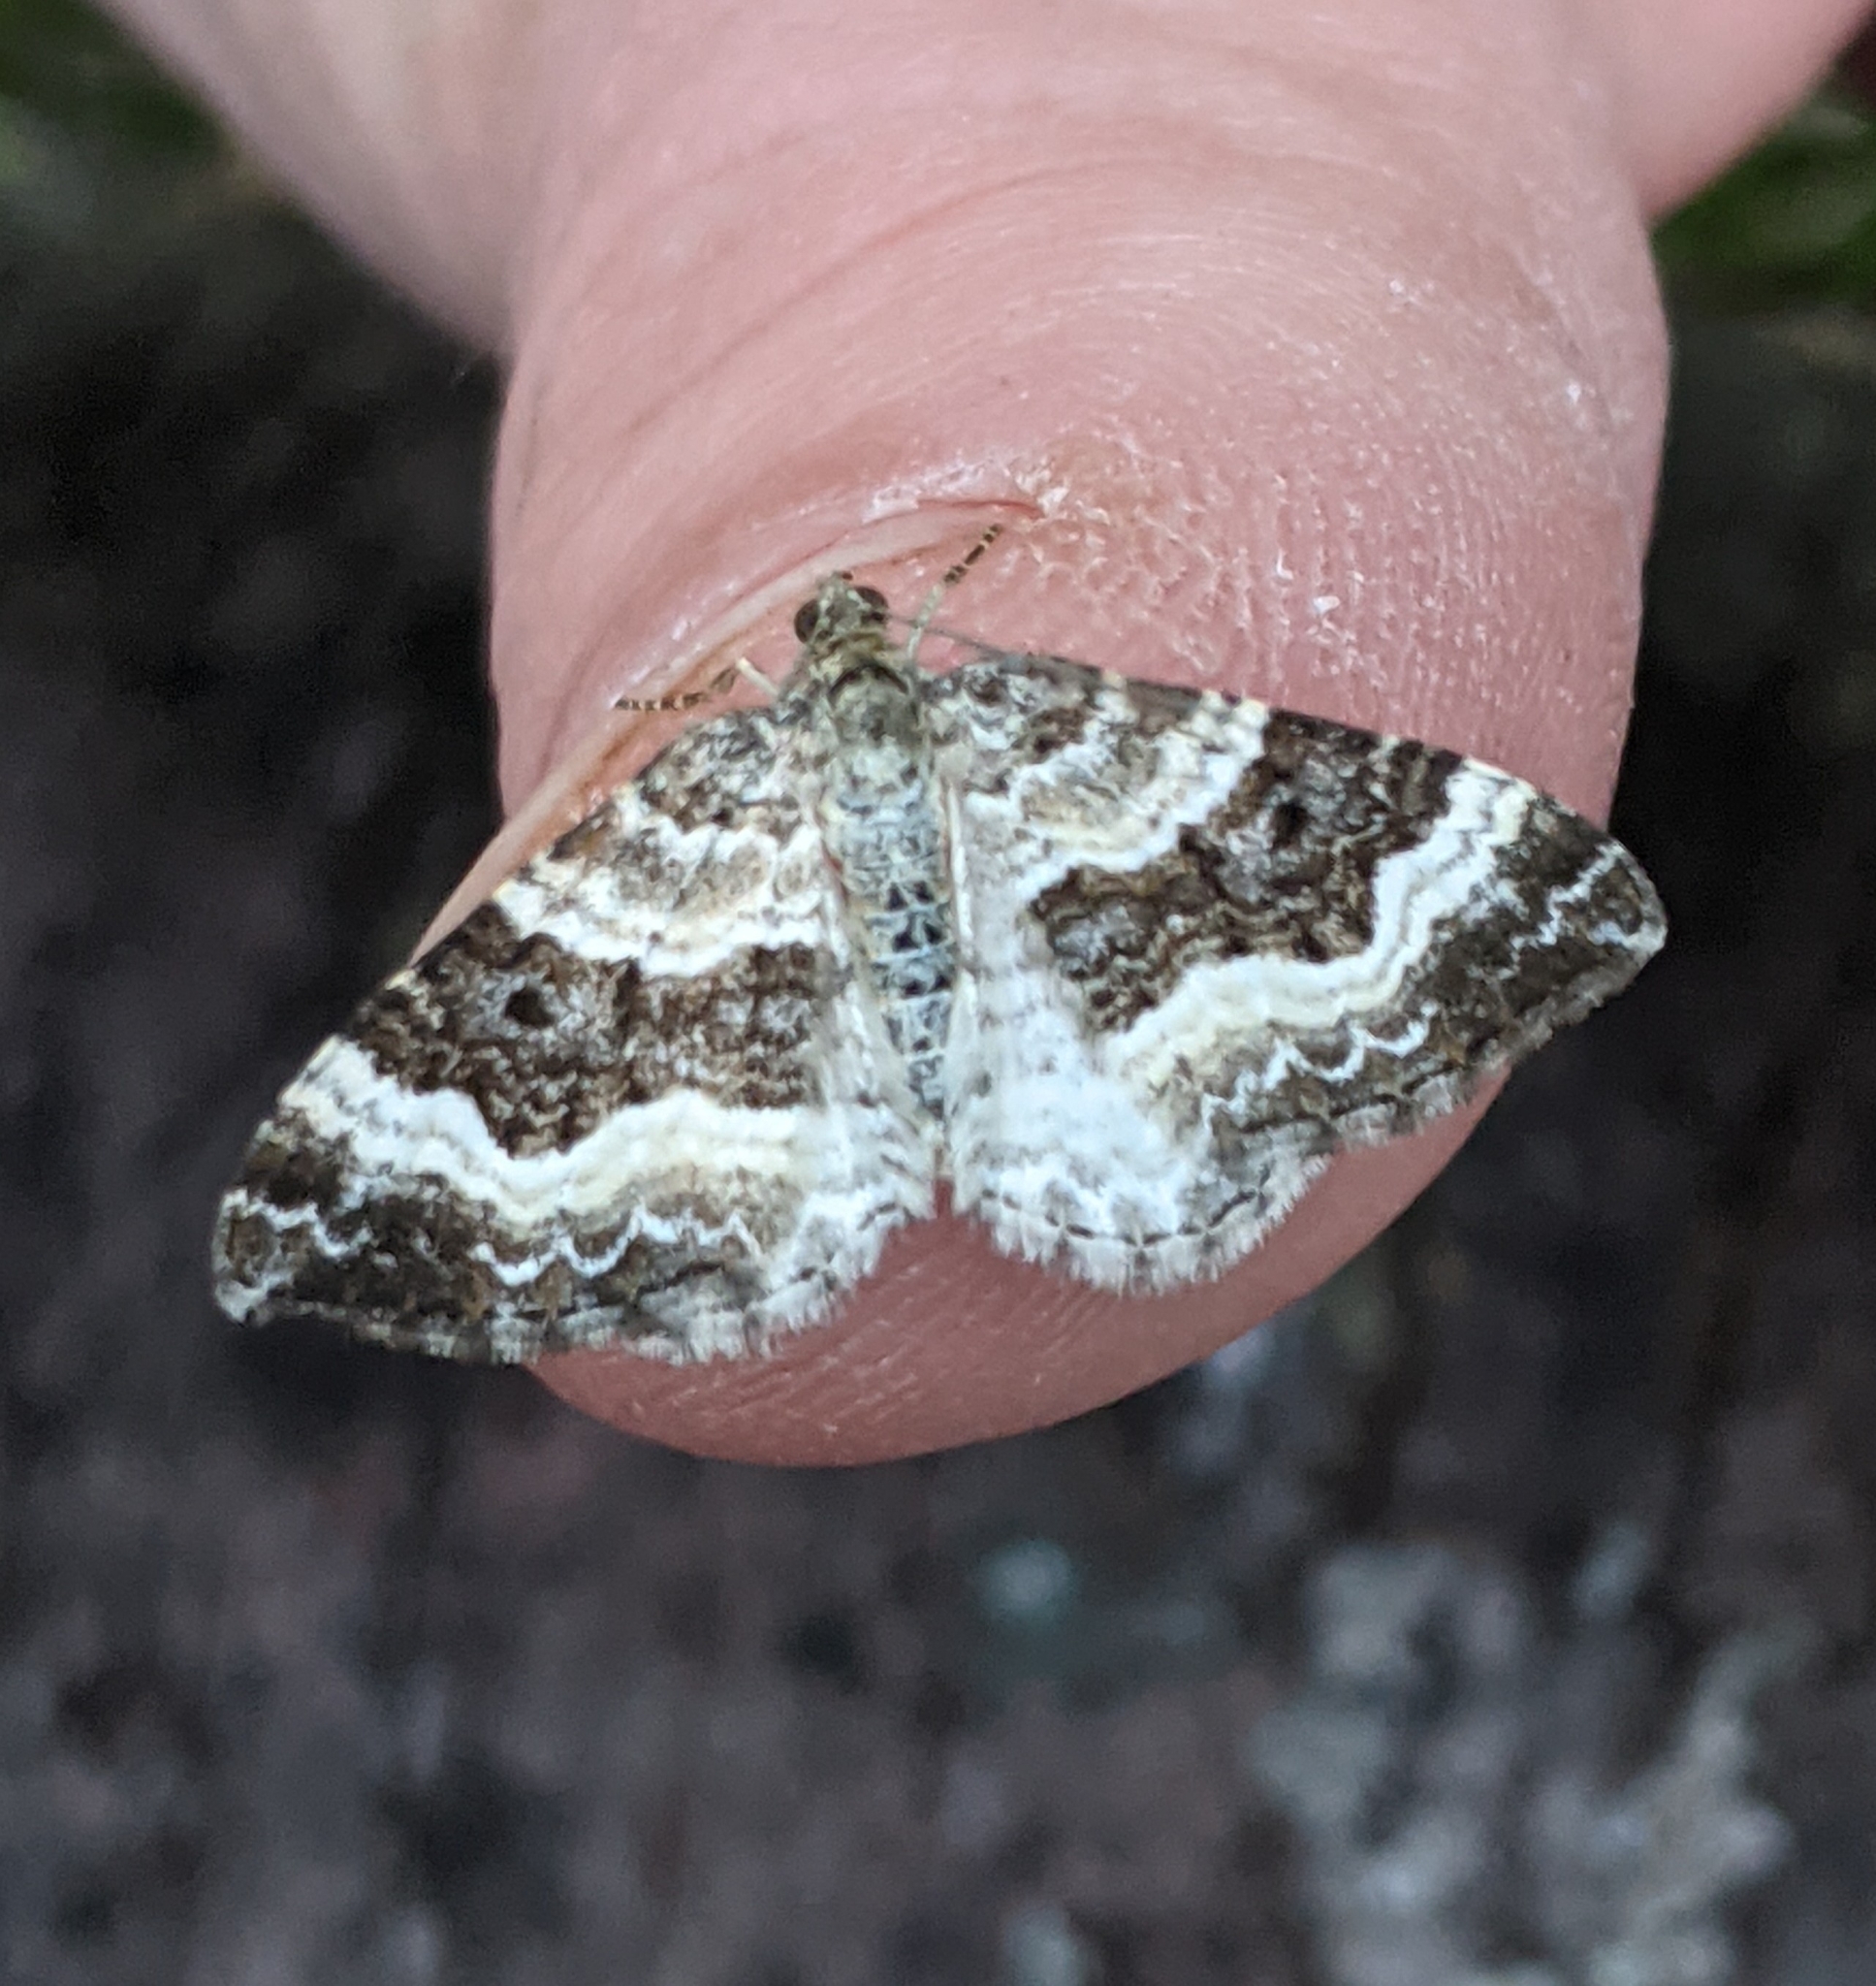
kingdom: Animalia
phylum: Arthropoda
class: Insecta
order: Lepidoptera
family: Geometridae
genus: Epirrhoe
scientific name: Epirrhoe alternata
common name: Common carpet
